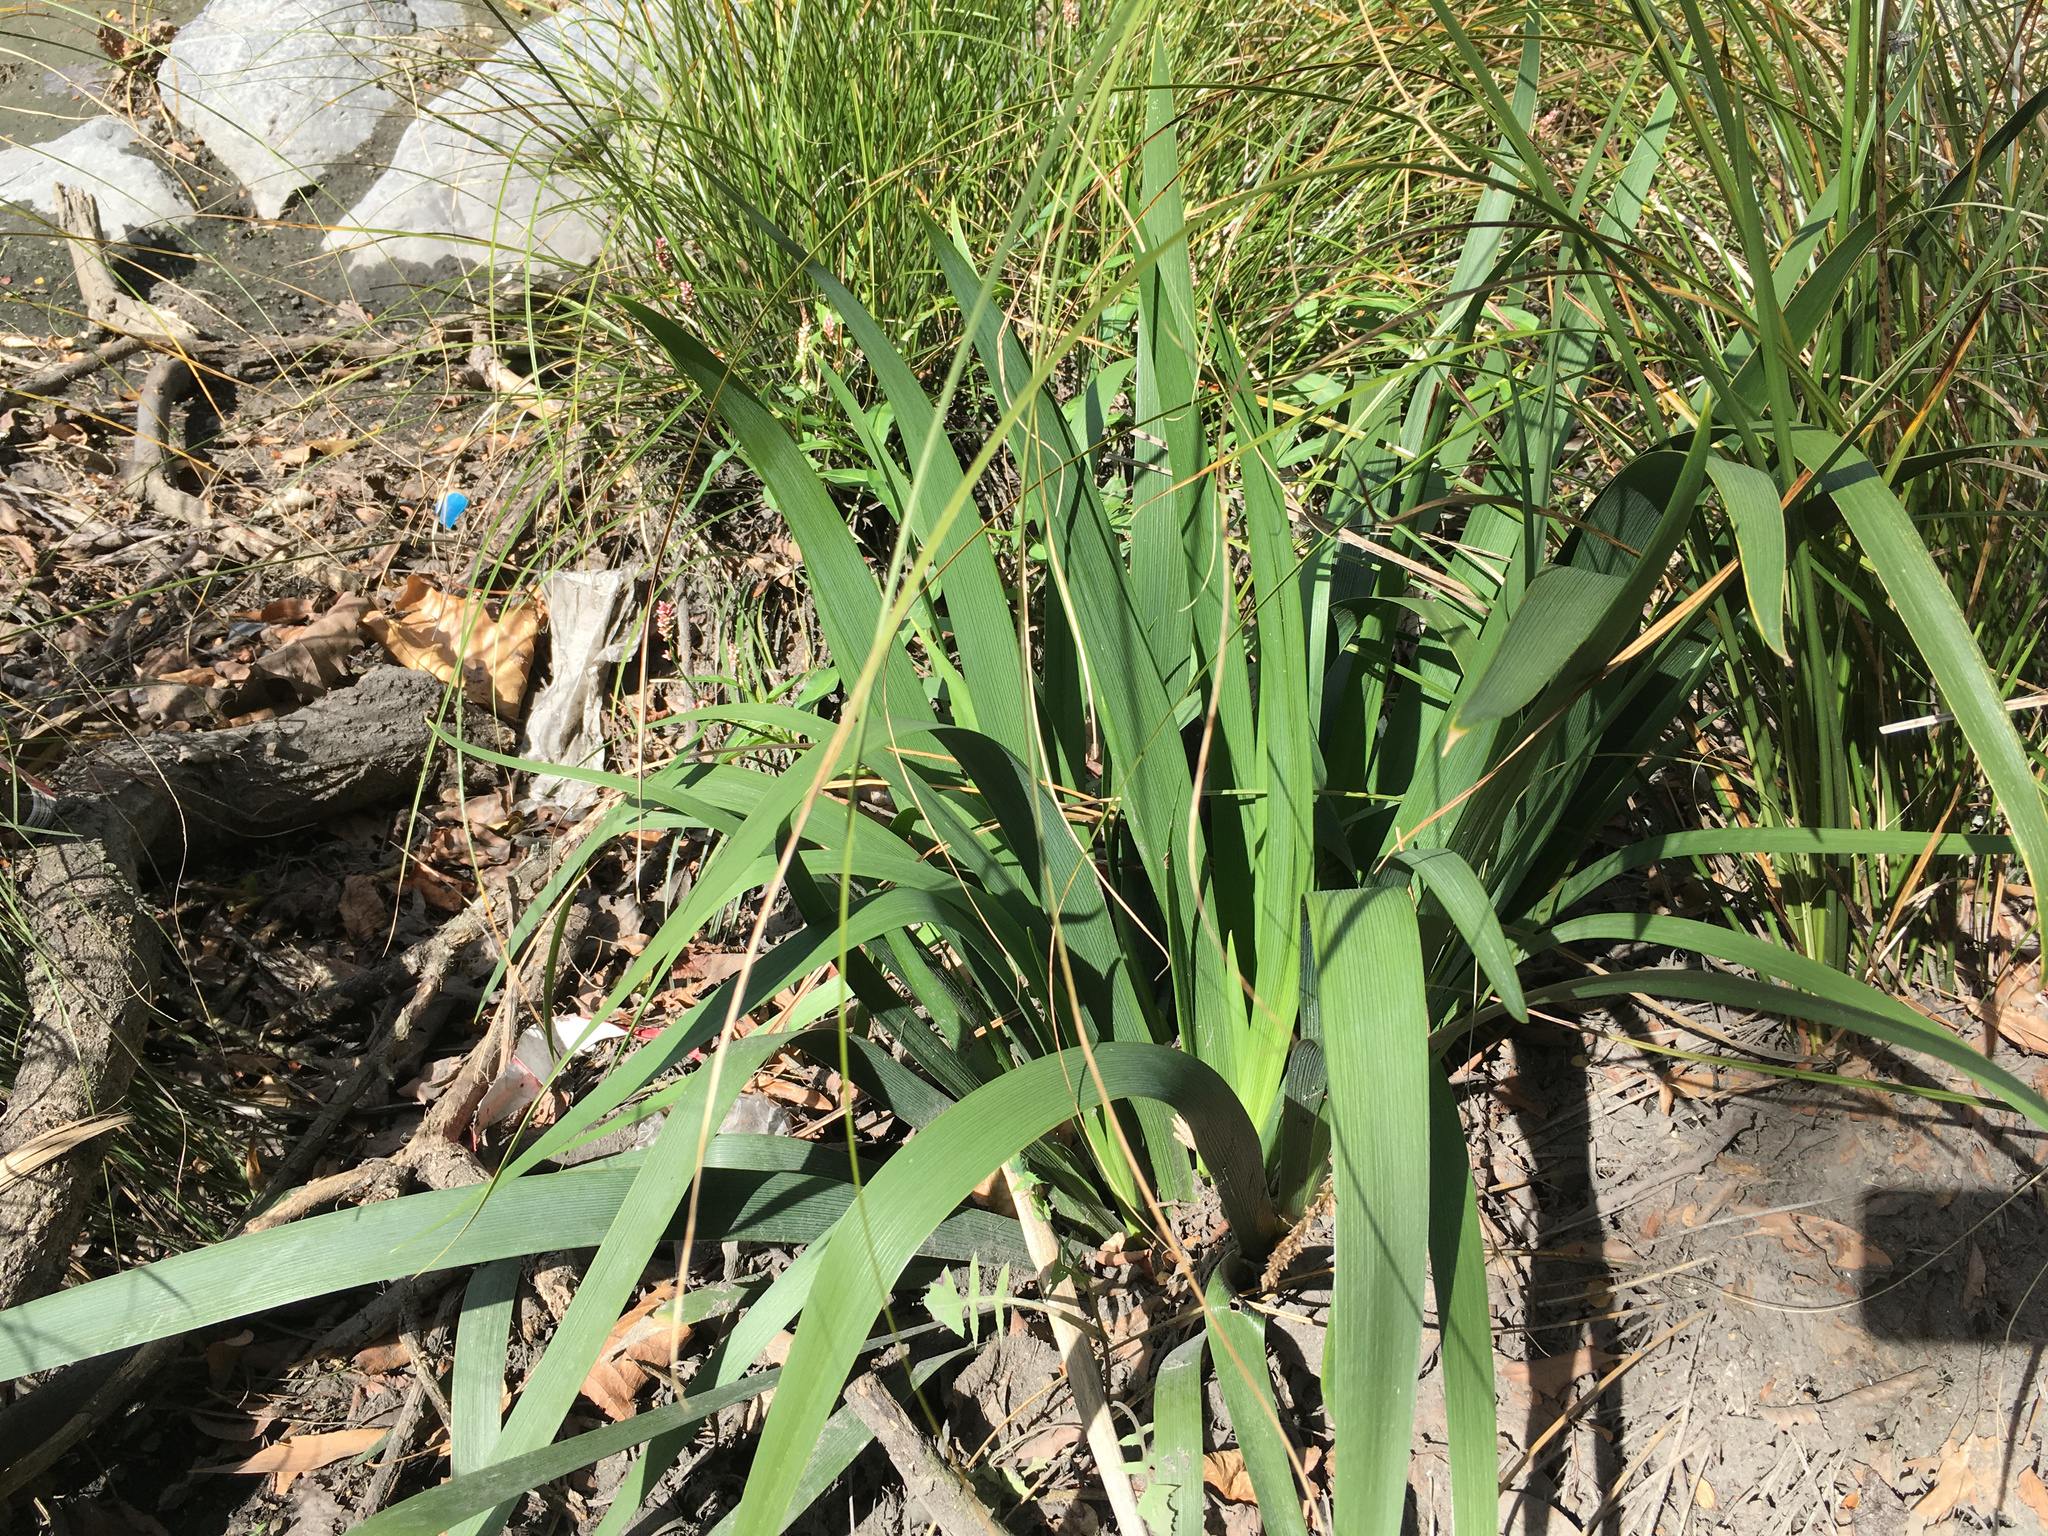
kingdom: Plantae
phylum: Tracheophyta
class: Liliopsida
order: Asparagales
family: Iridaceae
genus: Iris
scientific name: Iris foetidissima
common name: Stinking iris
